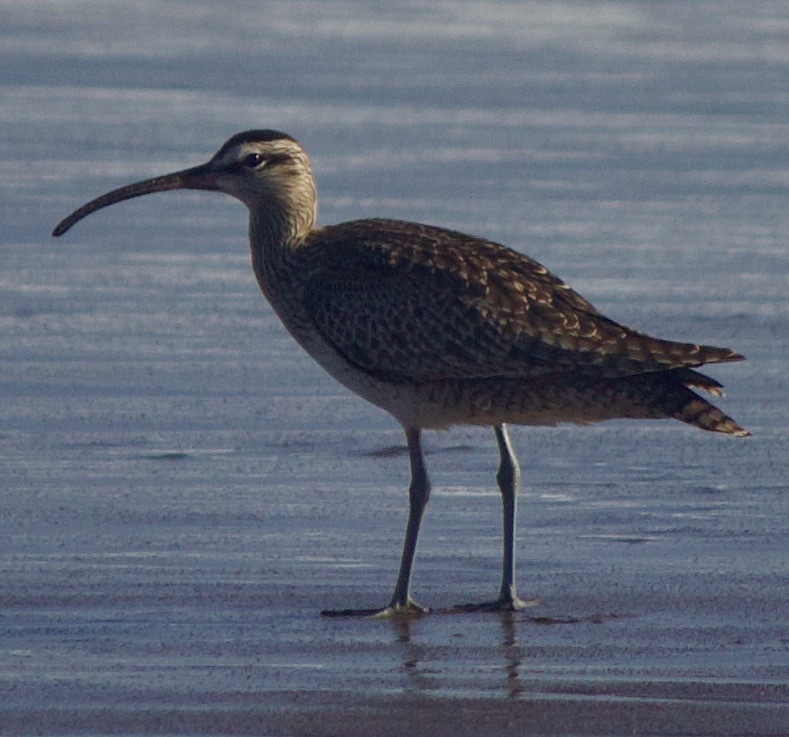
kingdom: Animalia
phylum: Chordata
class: Aves
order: Charadriiformes
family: Scolopacidae
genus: Numenius
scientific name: Numenius hudsonicus
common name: Hudsonian whimbrel
